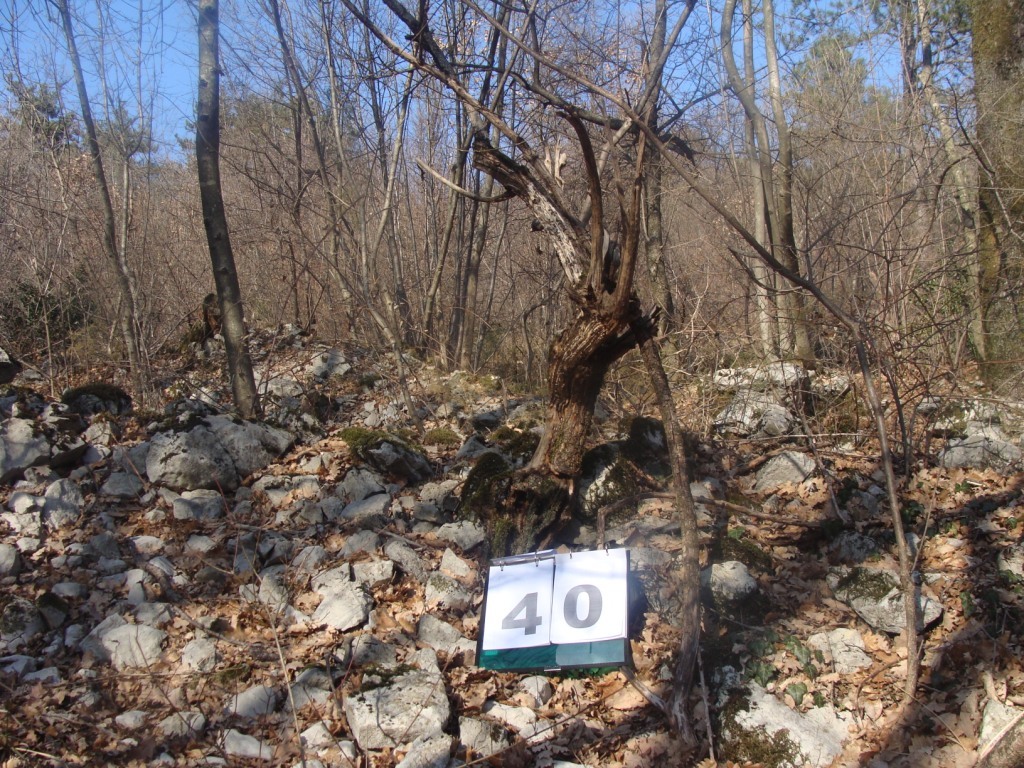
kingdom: Plantae
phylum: Tracheophyta
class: Magnoliopsida
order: Cornales
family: Cornaceae
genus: Cornus
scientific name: Cornus mas
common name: Cornelian-cherry
